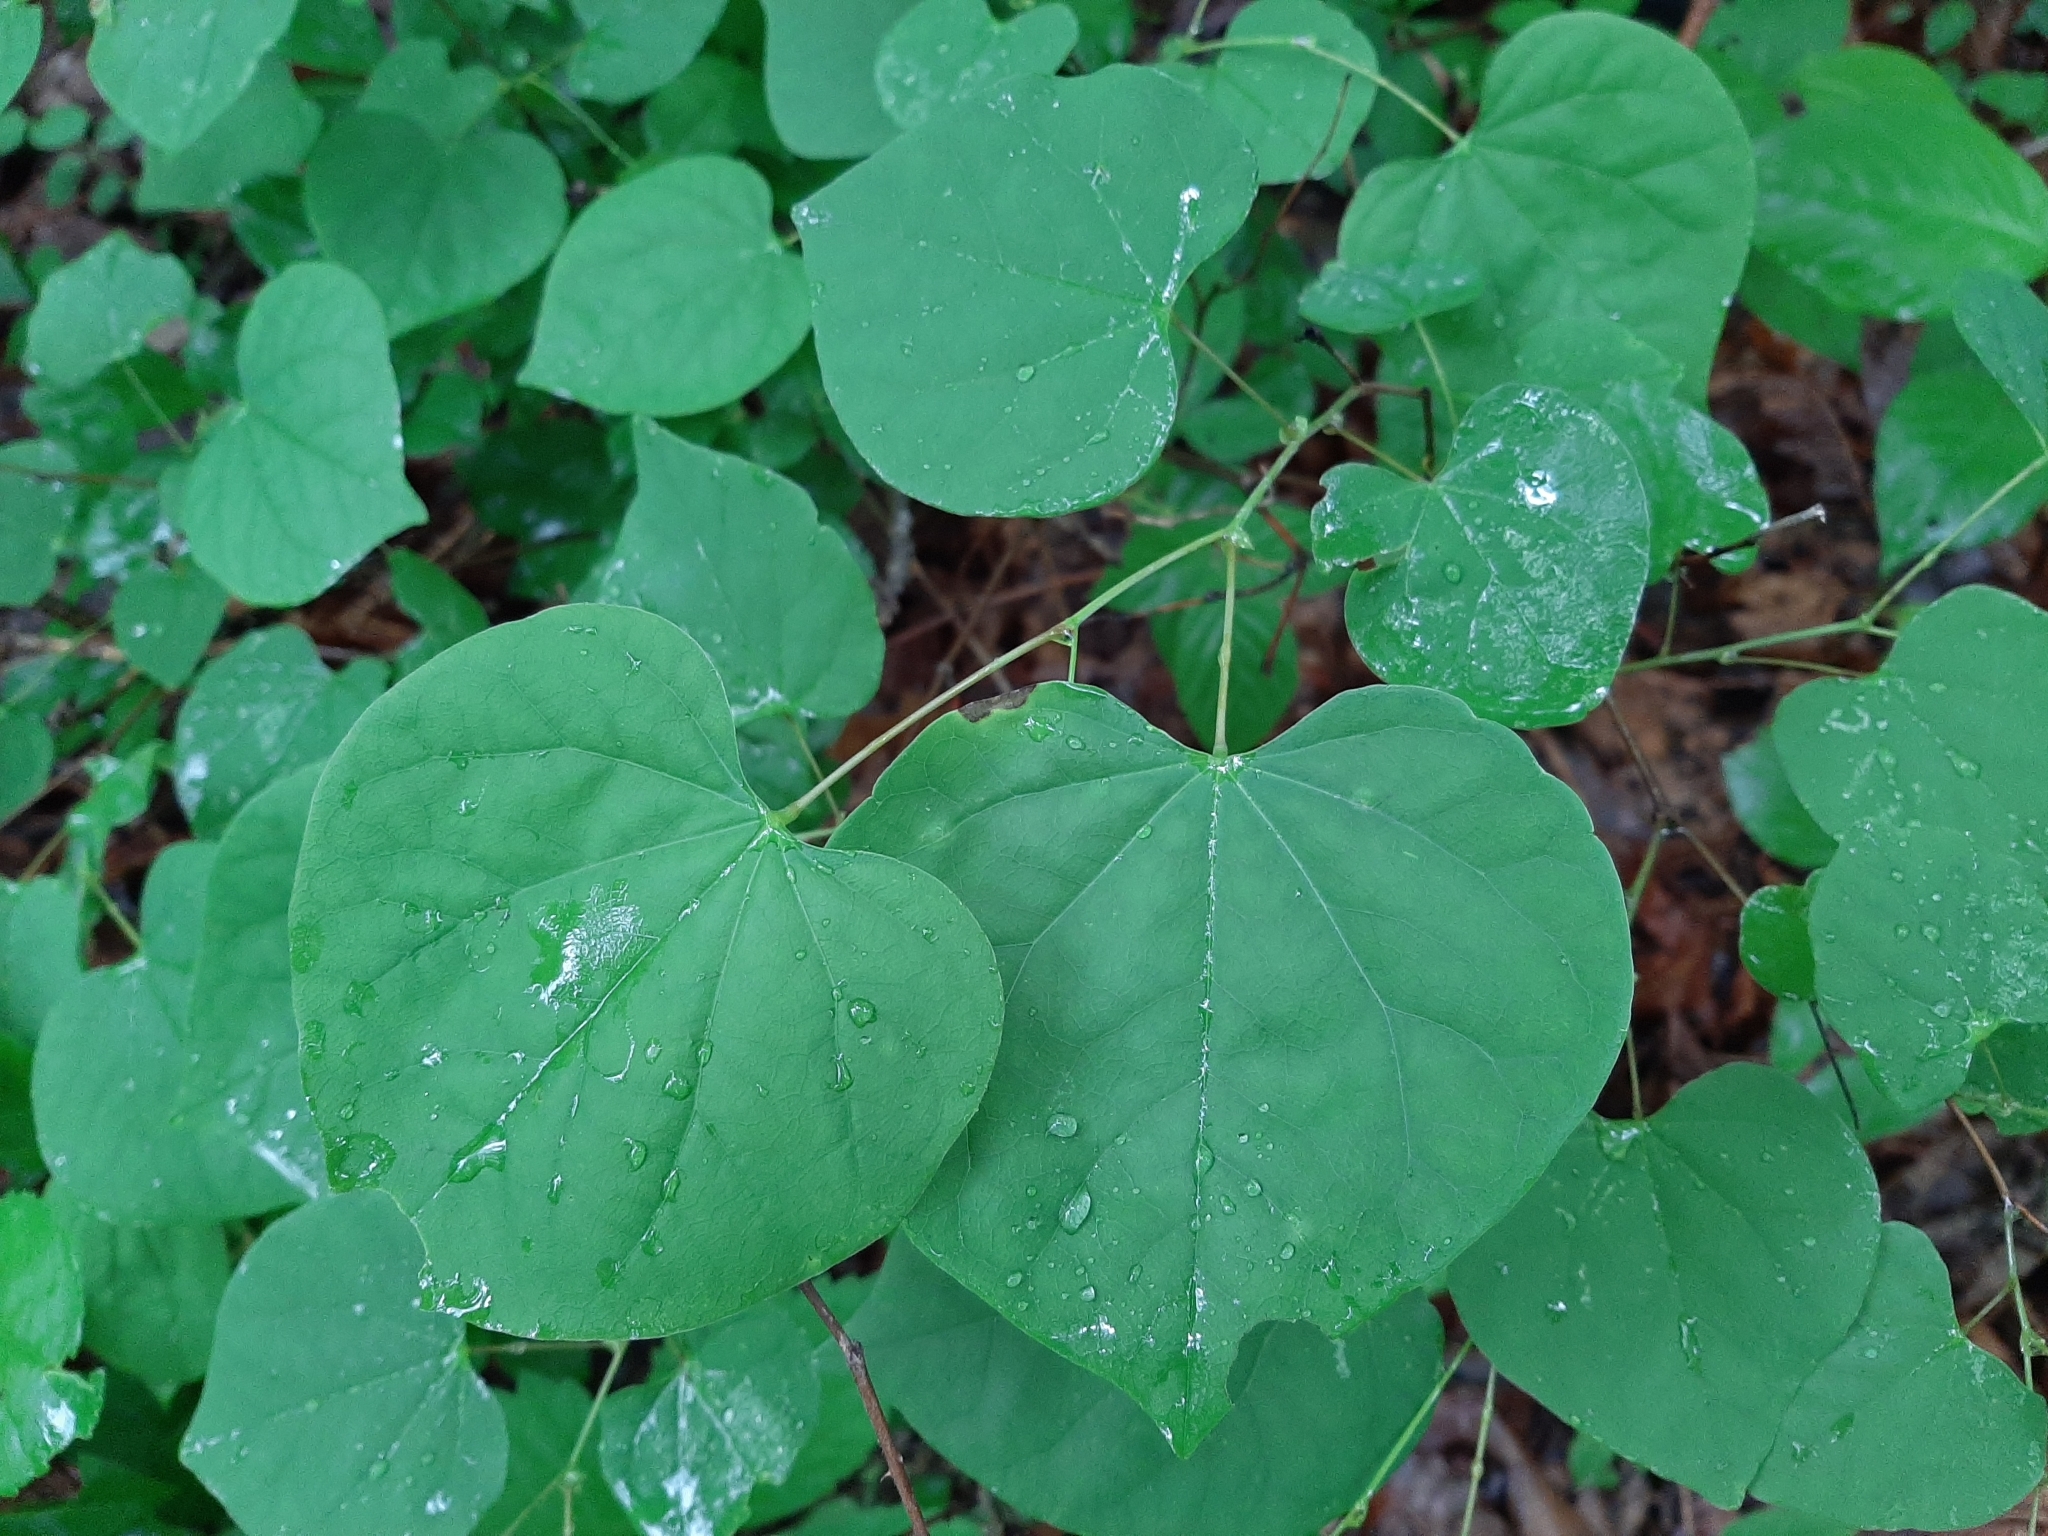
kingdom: Plantae
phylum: Tracheophyta
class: Magnoliopsida
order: Fabales
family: Fabaceae
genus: Cercis
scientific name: Cercis canadensis
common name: Eastern redbud
